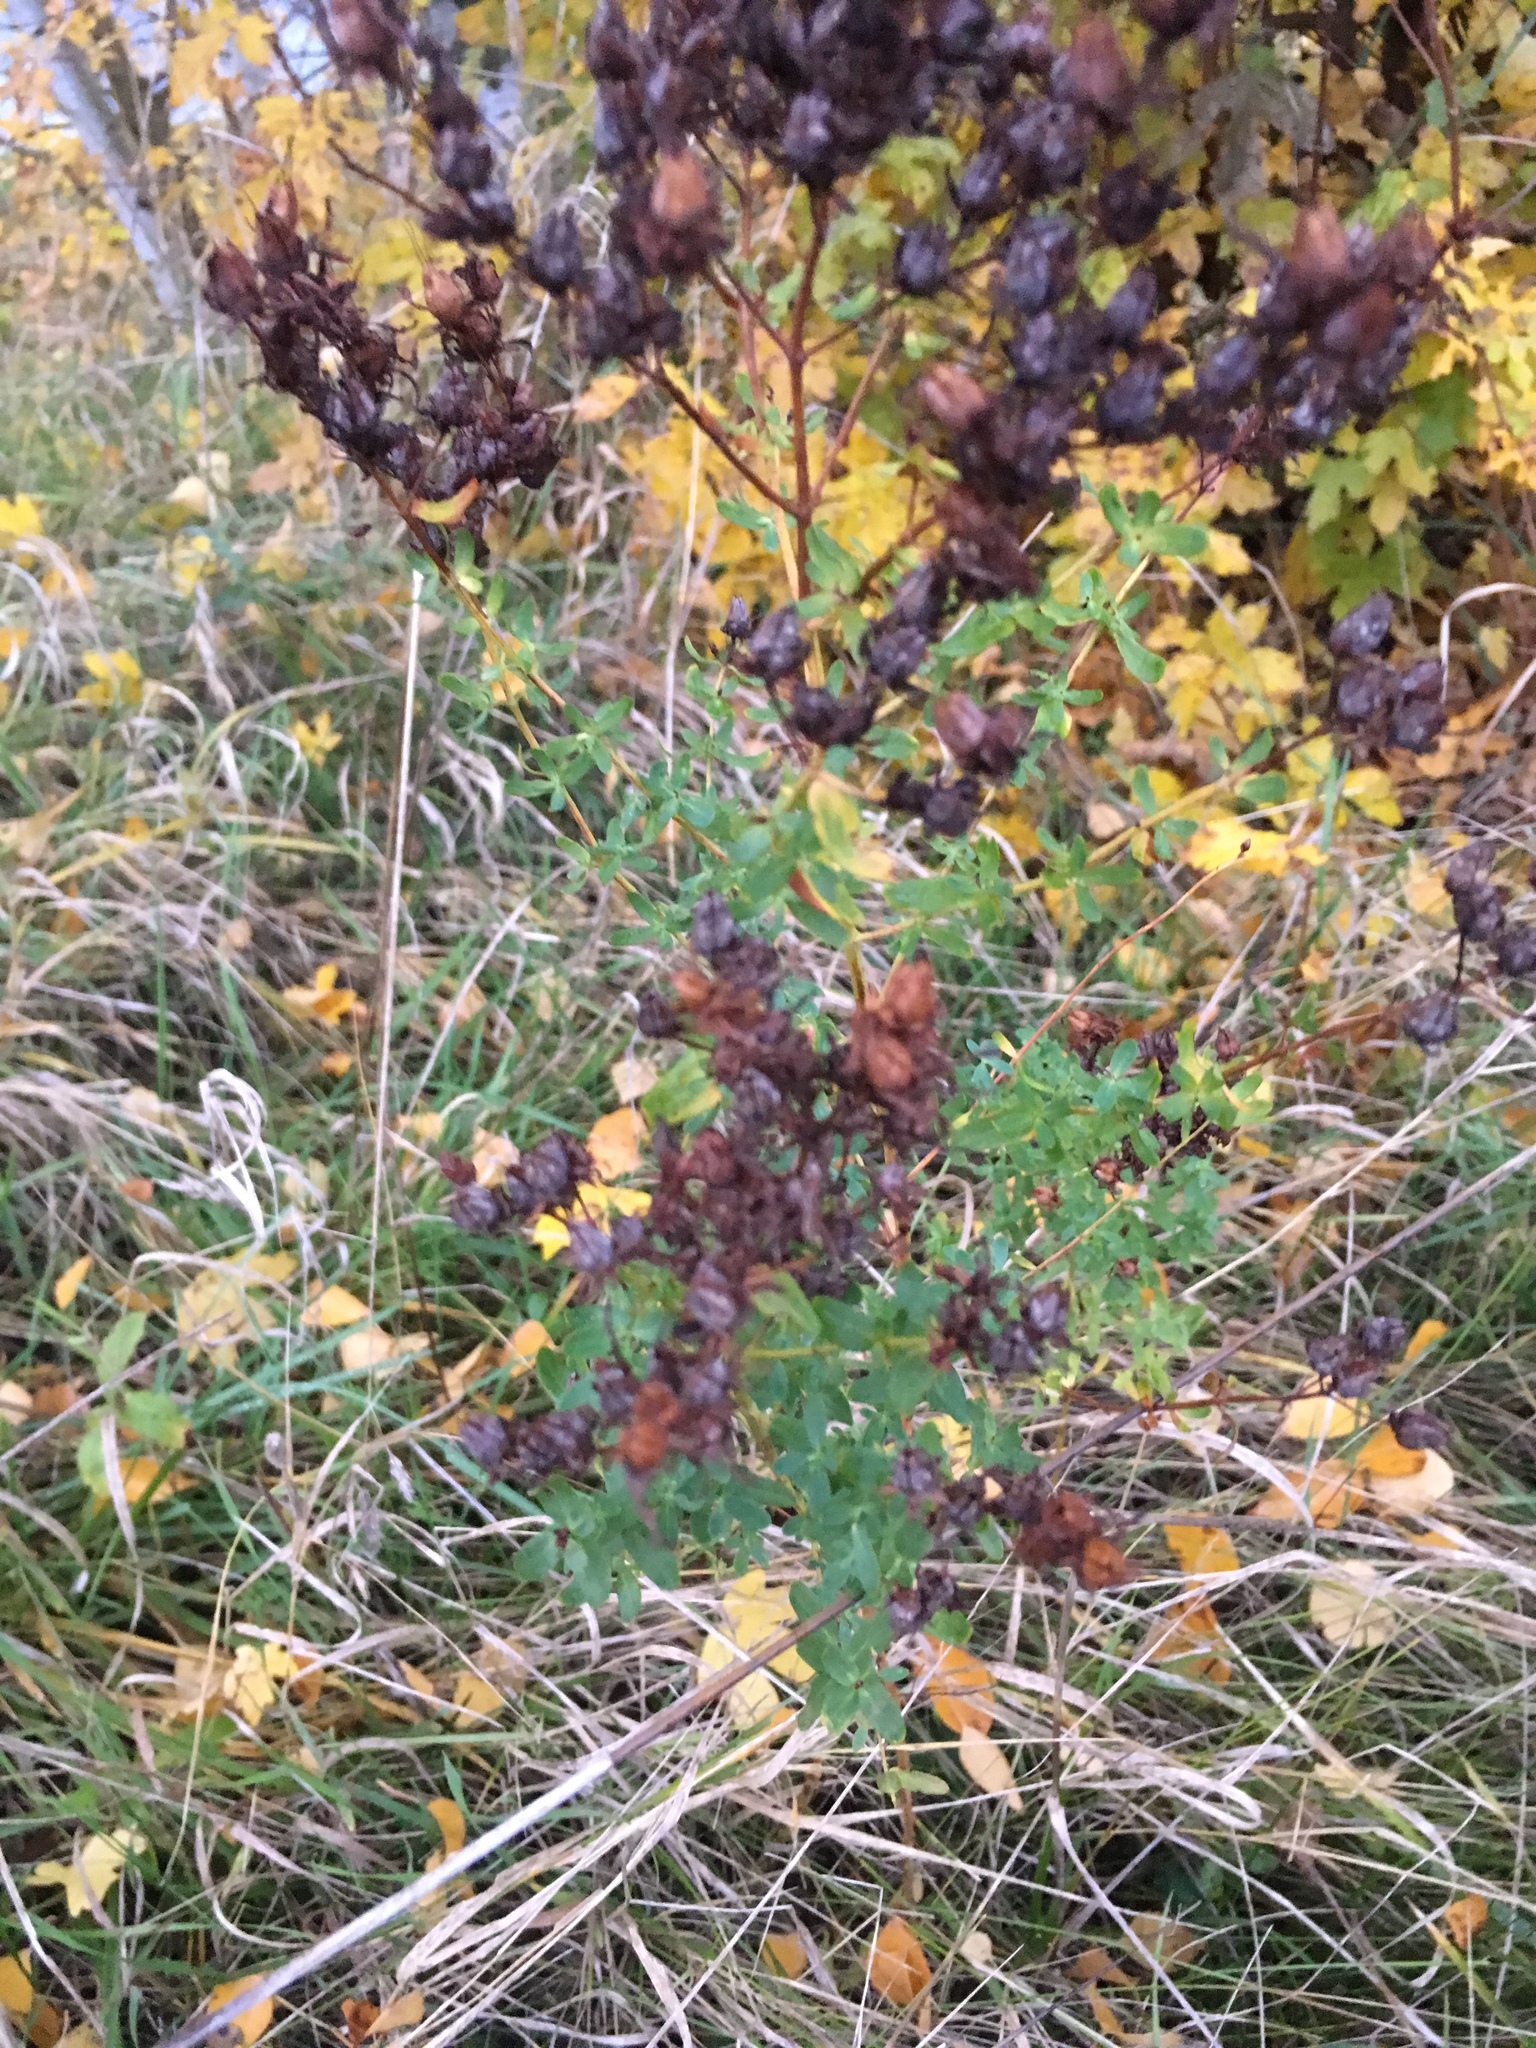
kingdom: Plantae
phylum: Tracheophyta
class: Magnoliopsida
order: Malpighiales
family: Hypericaceae
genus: Hypericum
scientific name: Hypericum perforatum
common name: Common st. johnswort
